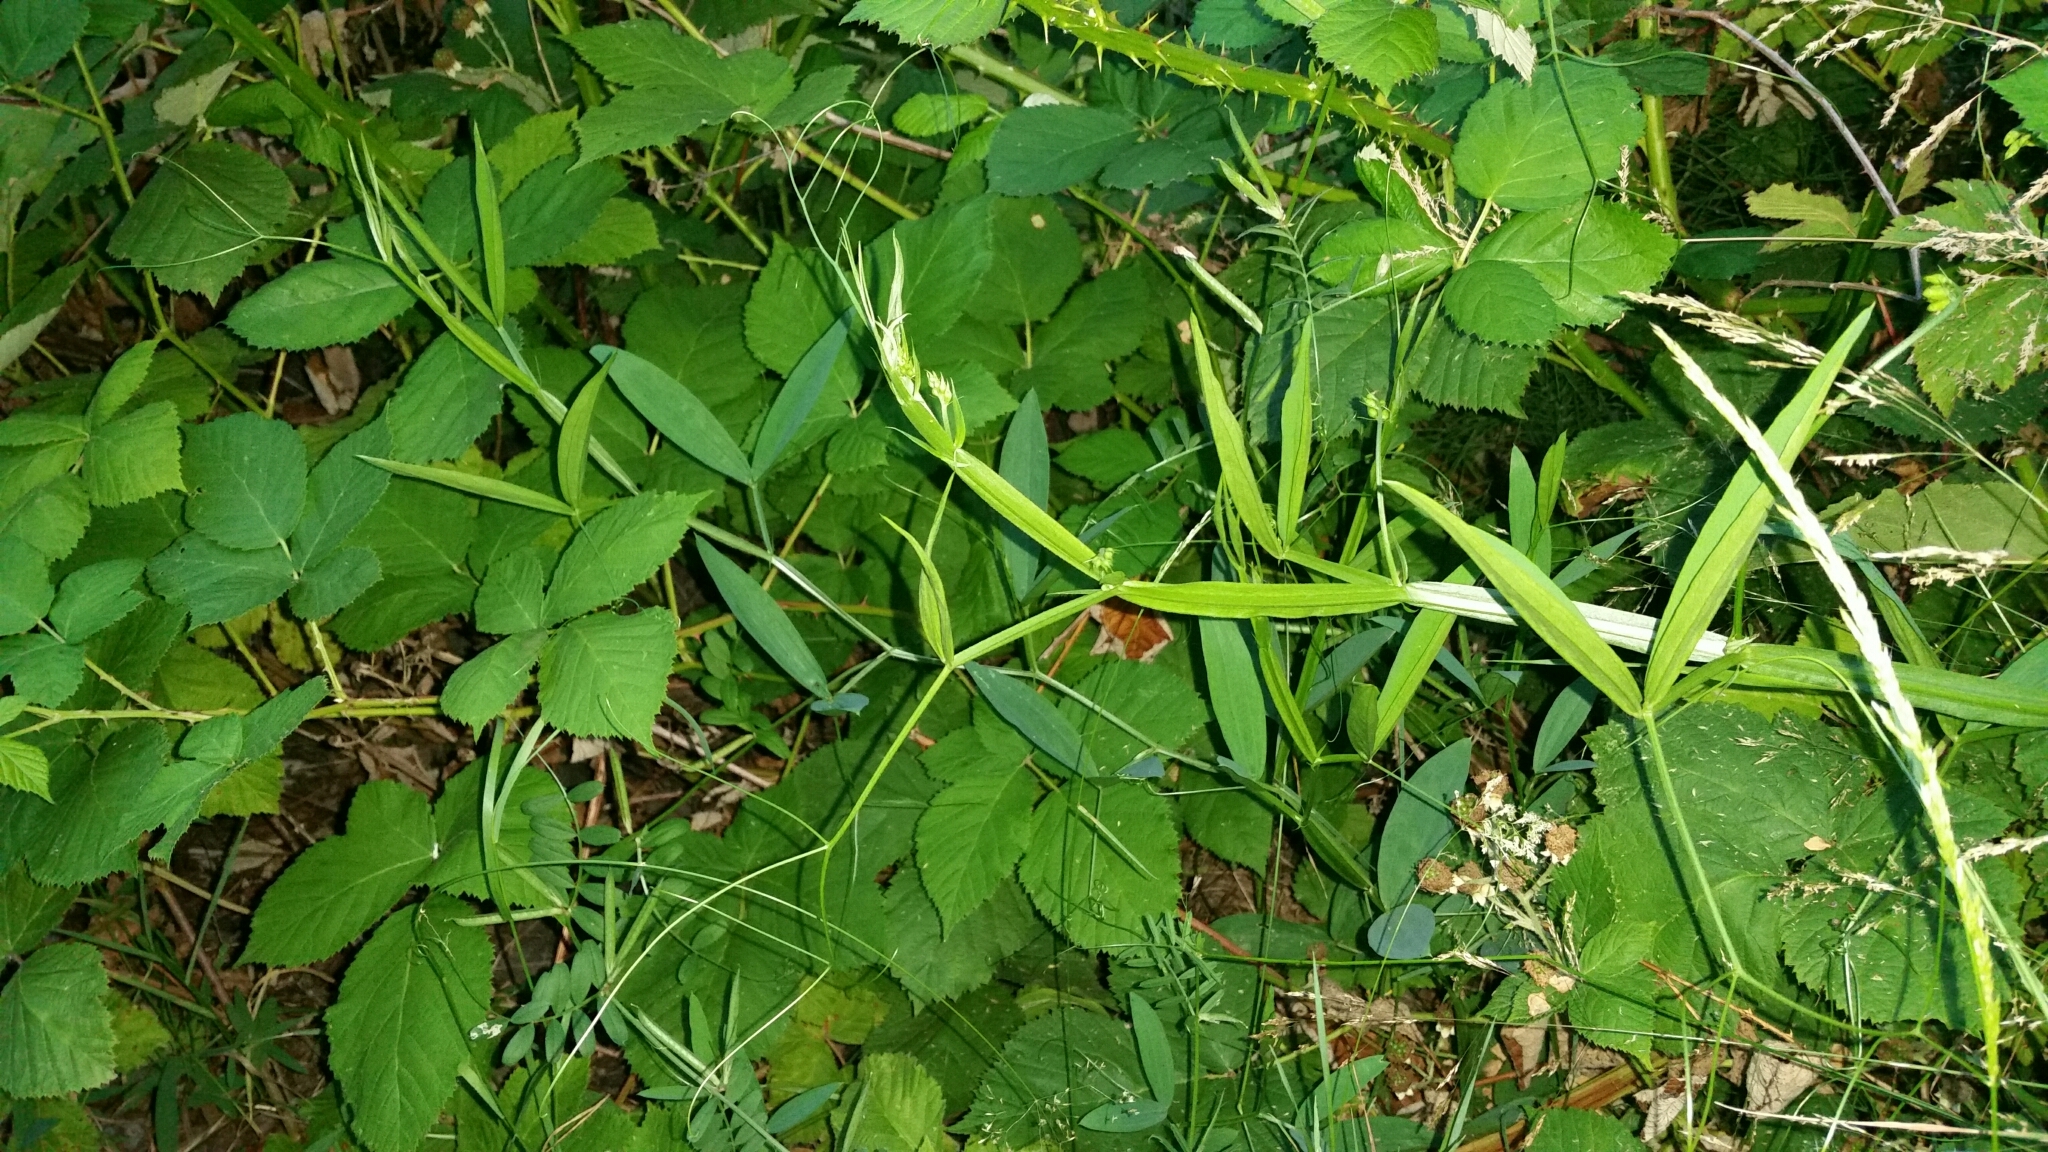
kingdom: Plantae
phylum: Tracheophyta
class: Magnoliopsida
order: Fabales
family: Fabaceae
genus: Lathyrus
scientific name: Lathyrus sylvestris
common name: Flat pea
